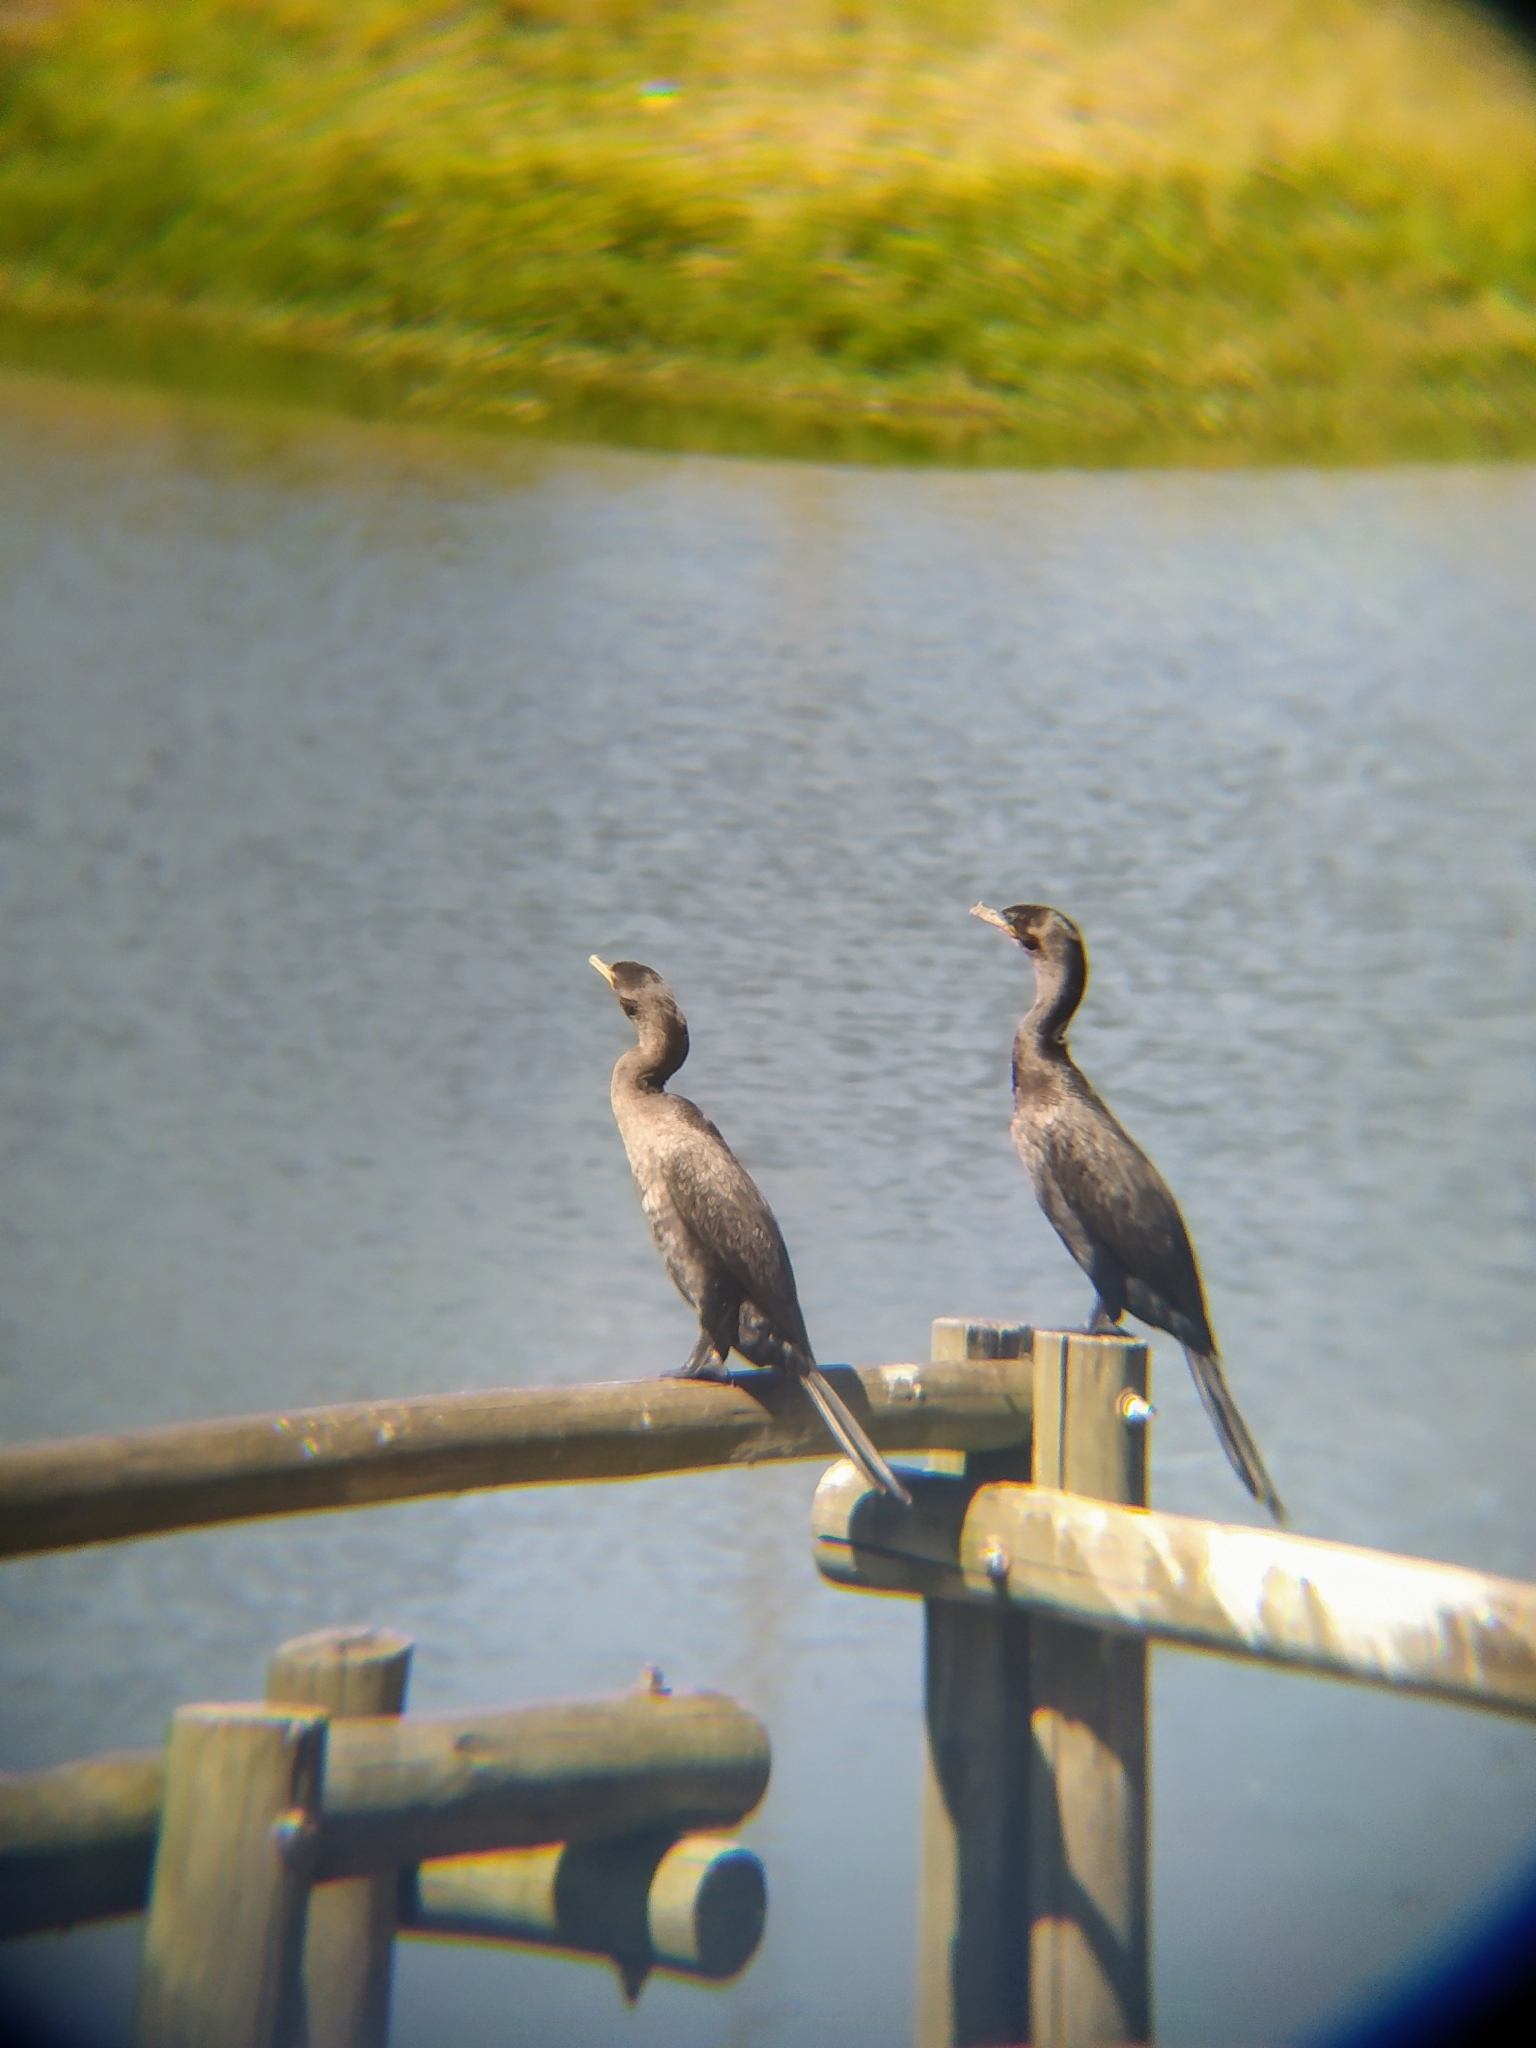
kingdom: Animalia
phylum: Chordata
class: Aves
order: Suliformes
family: Phalacrocoracidae
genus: Phalacrocorax
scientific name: Phalacrocorax brasilianus
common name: Neotropic cormorant
